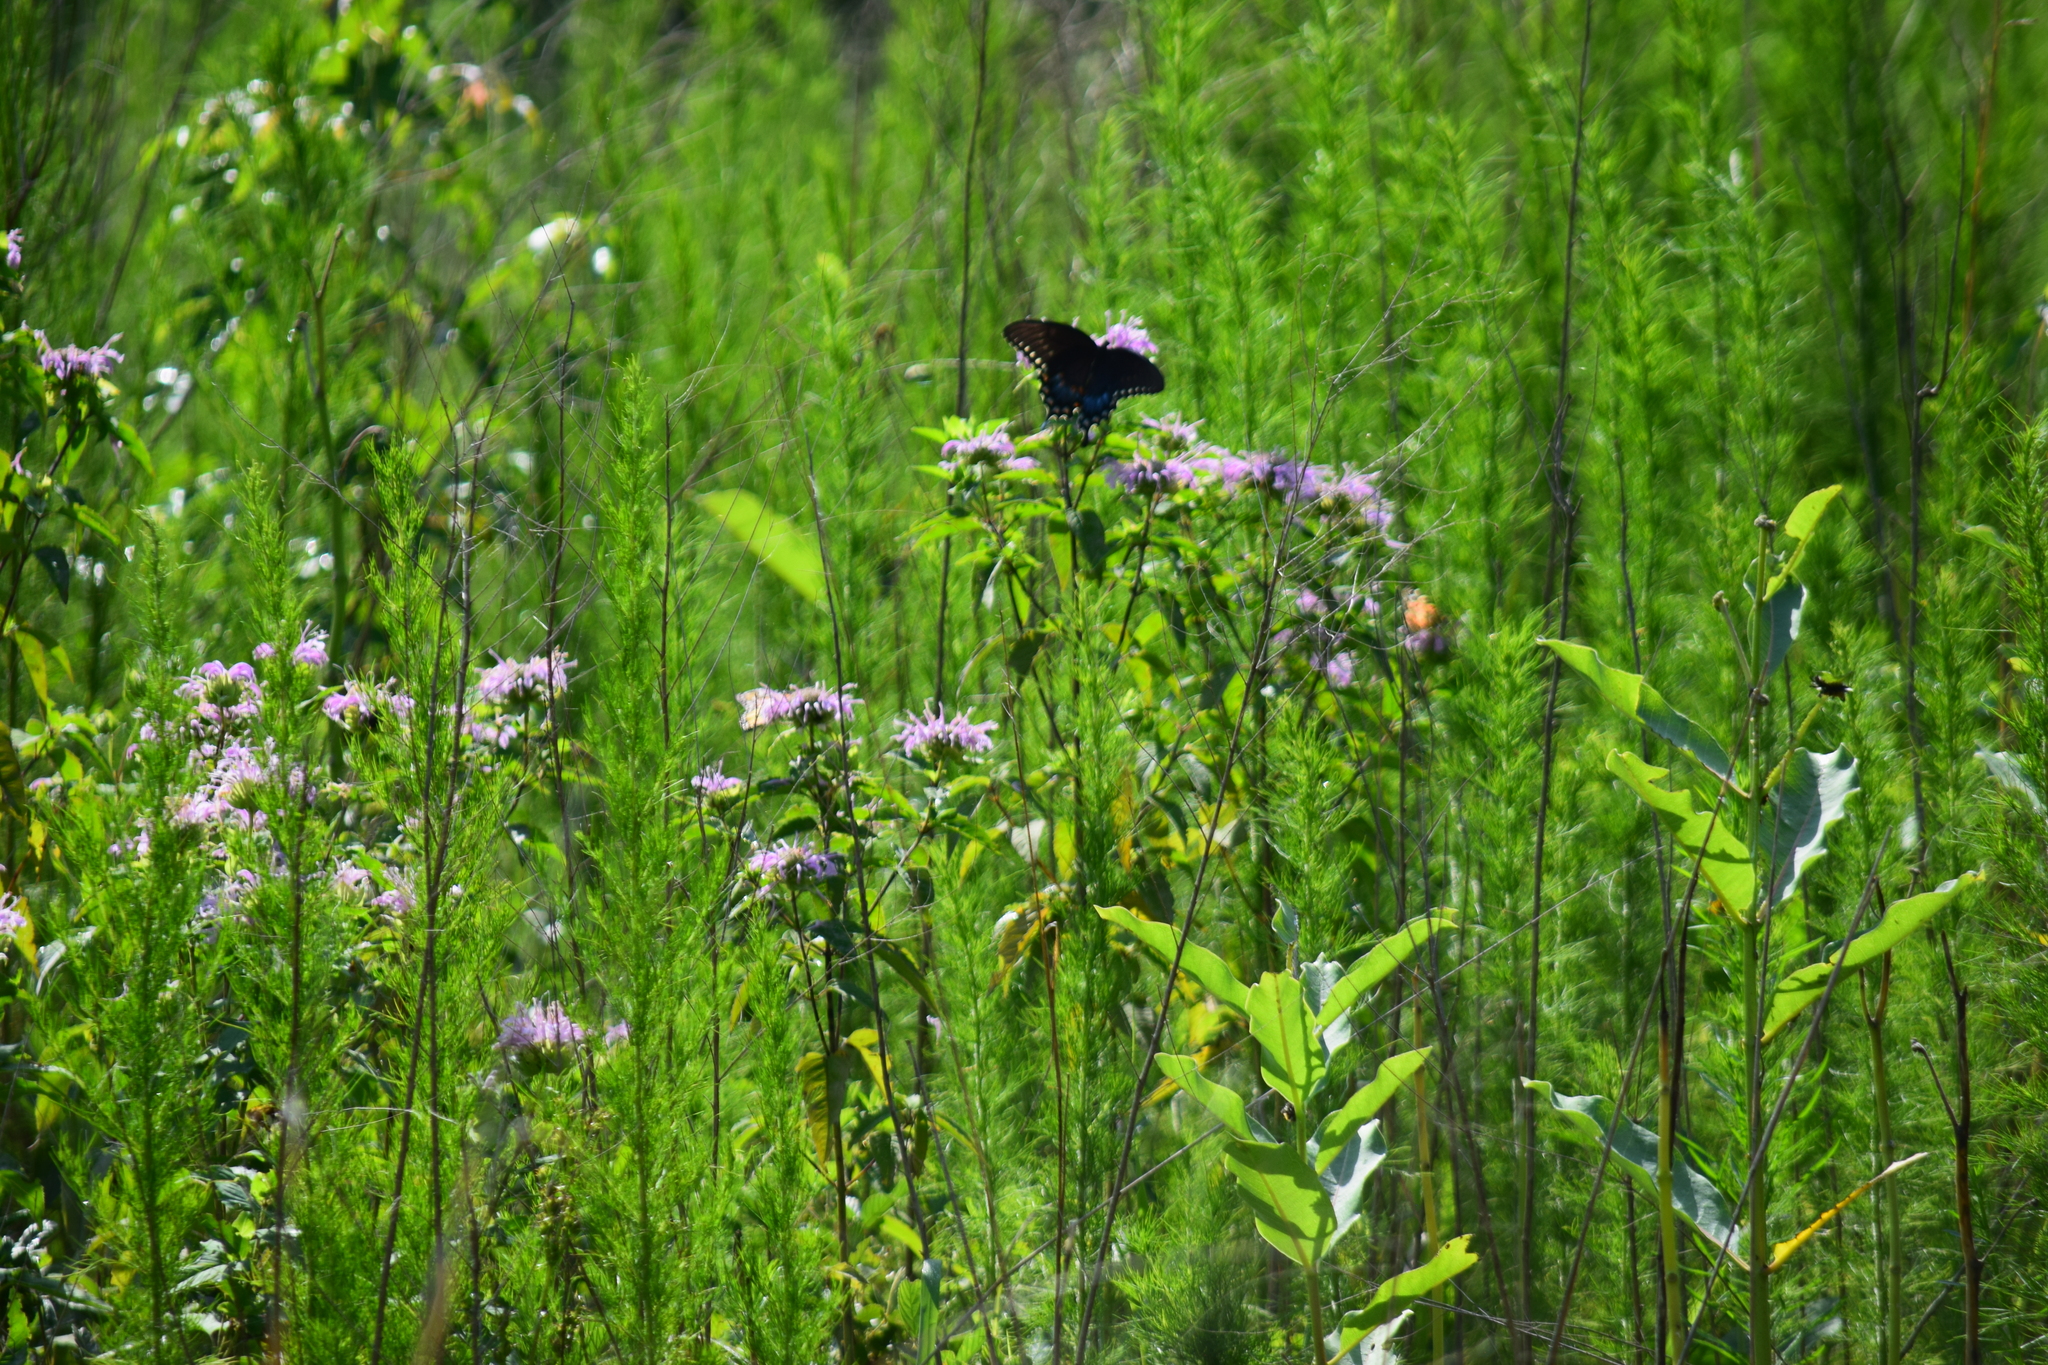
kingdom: Animalia
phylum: Arthropoda
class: Insecta
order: Lepidoptera
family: Papilionidae
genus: Papilio
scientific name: Papilio troilus
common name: Spicebush swallowtail
